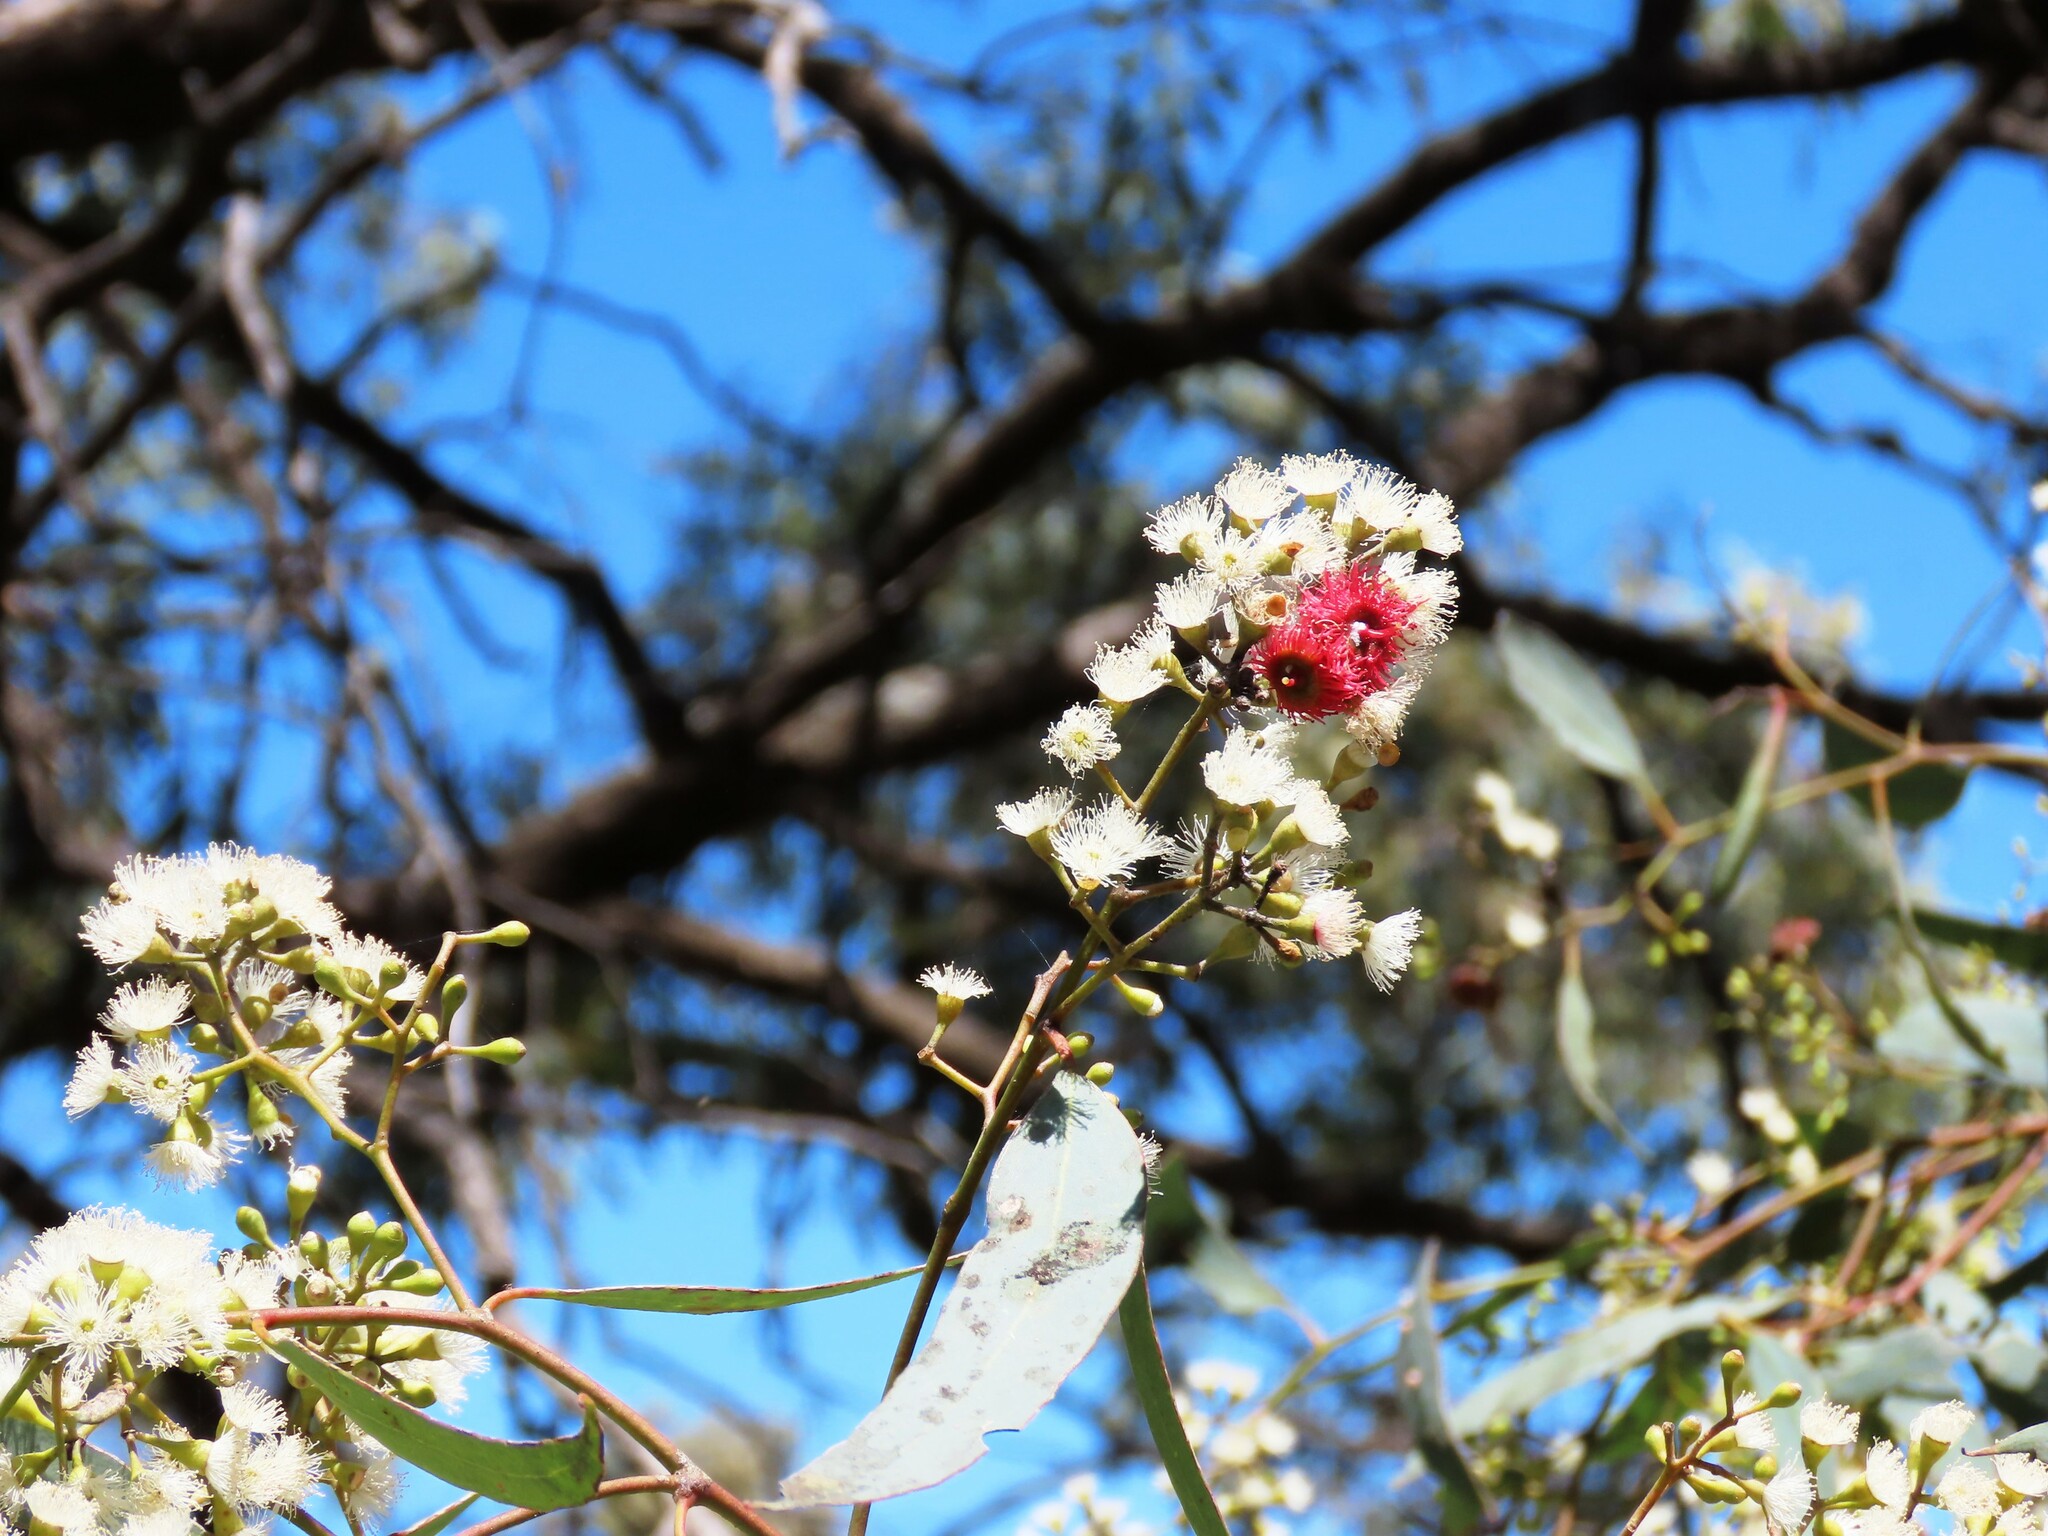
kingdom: Plantae
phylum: Tracheophyta
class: Magnoliopsida
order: Myrtales
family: Myrtaceae
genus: Eucalyptus
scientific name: Eucalyptus largiflorens
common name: Black-box
